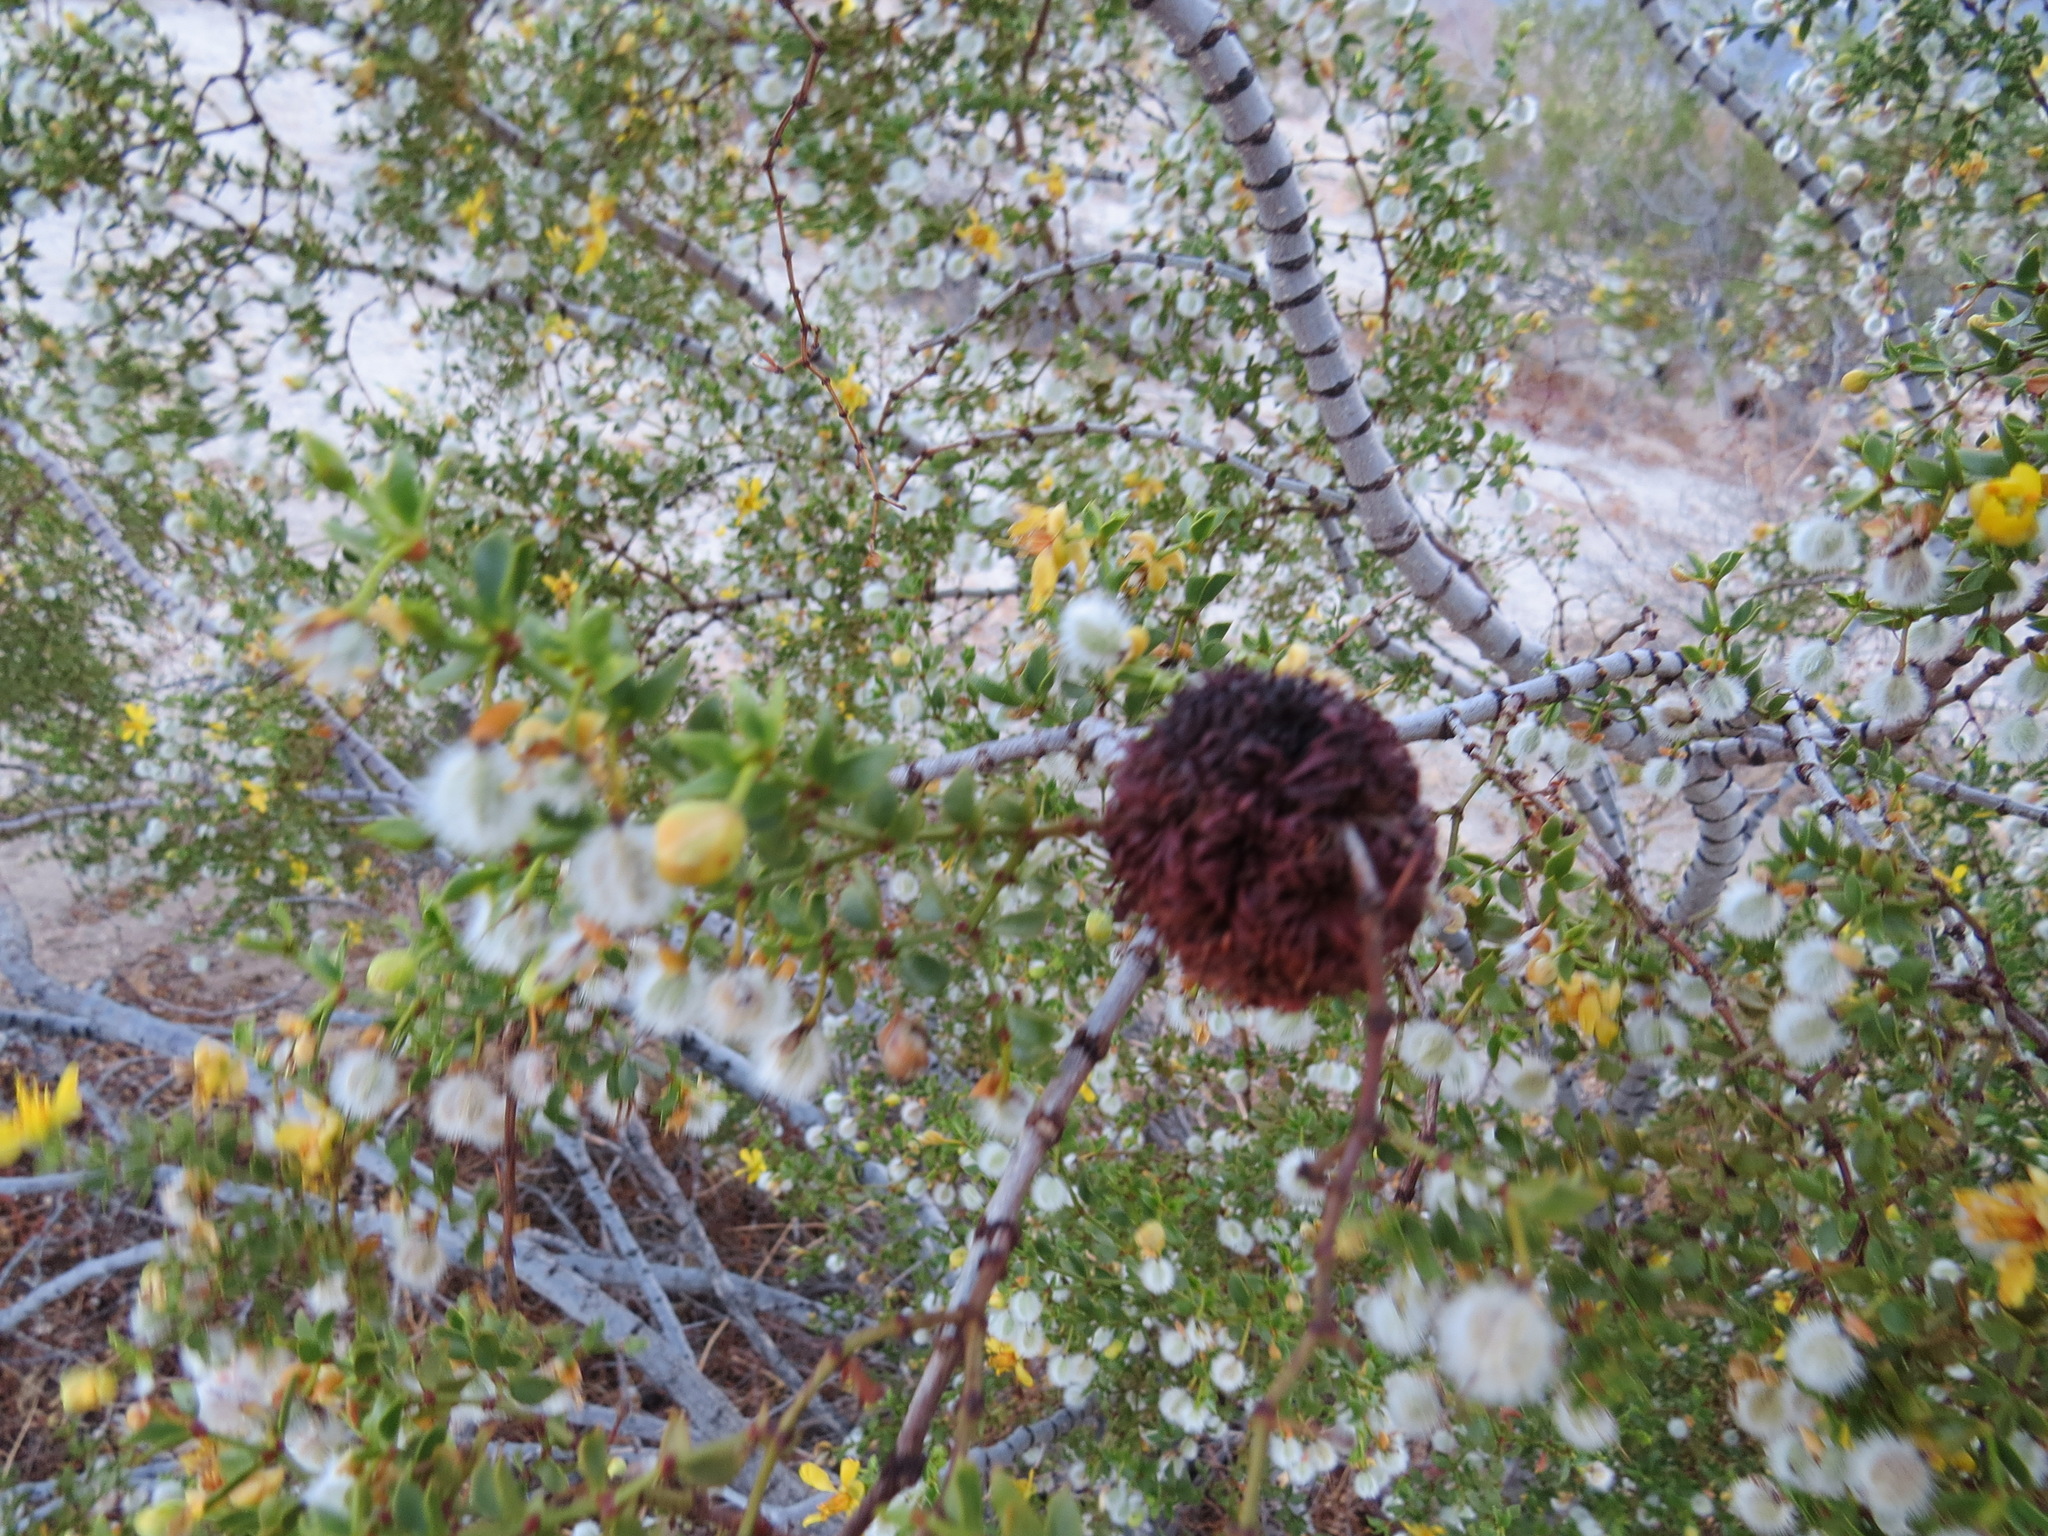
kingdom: Animalia
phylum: Arthropoda
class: Insecta
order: Diptera
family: Cecidomyiidae
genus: Asphondylia
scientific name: Asphondylia auripila
